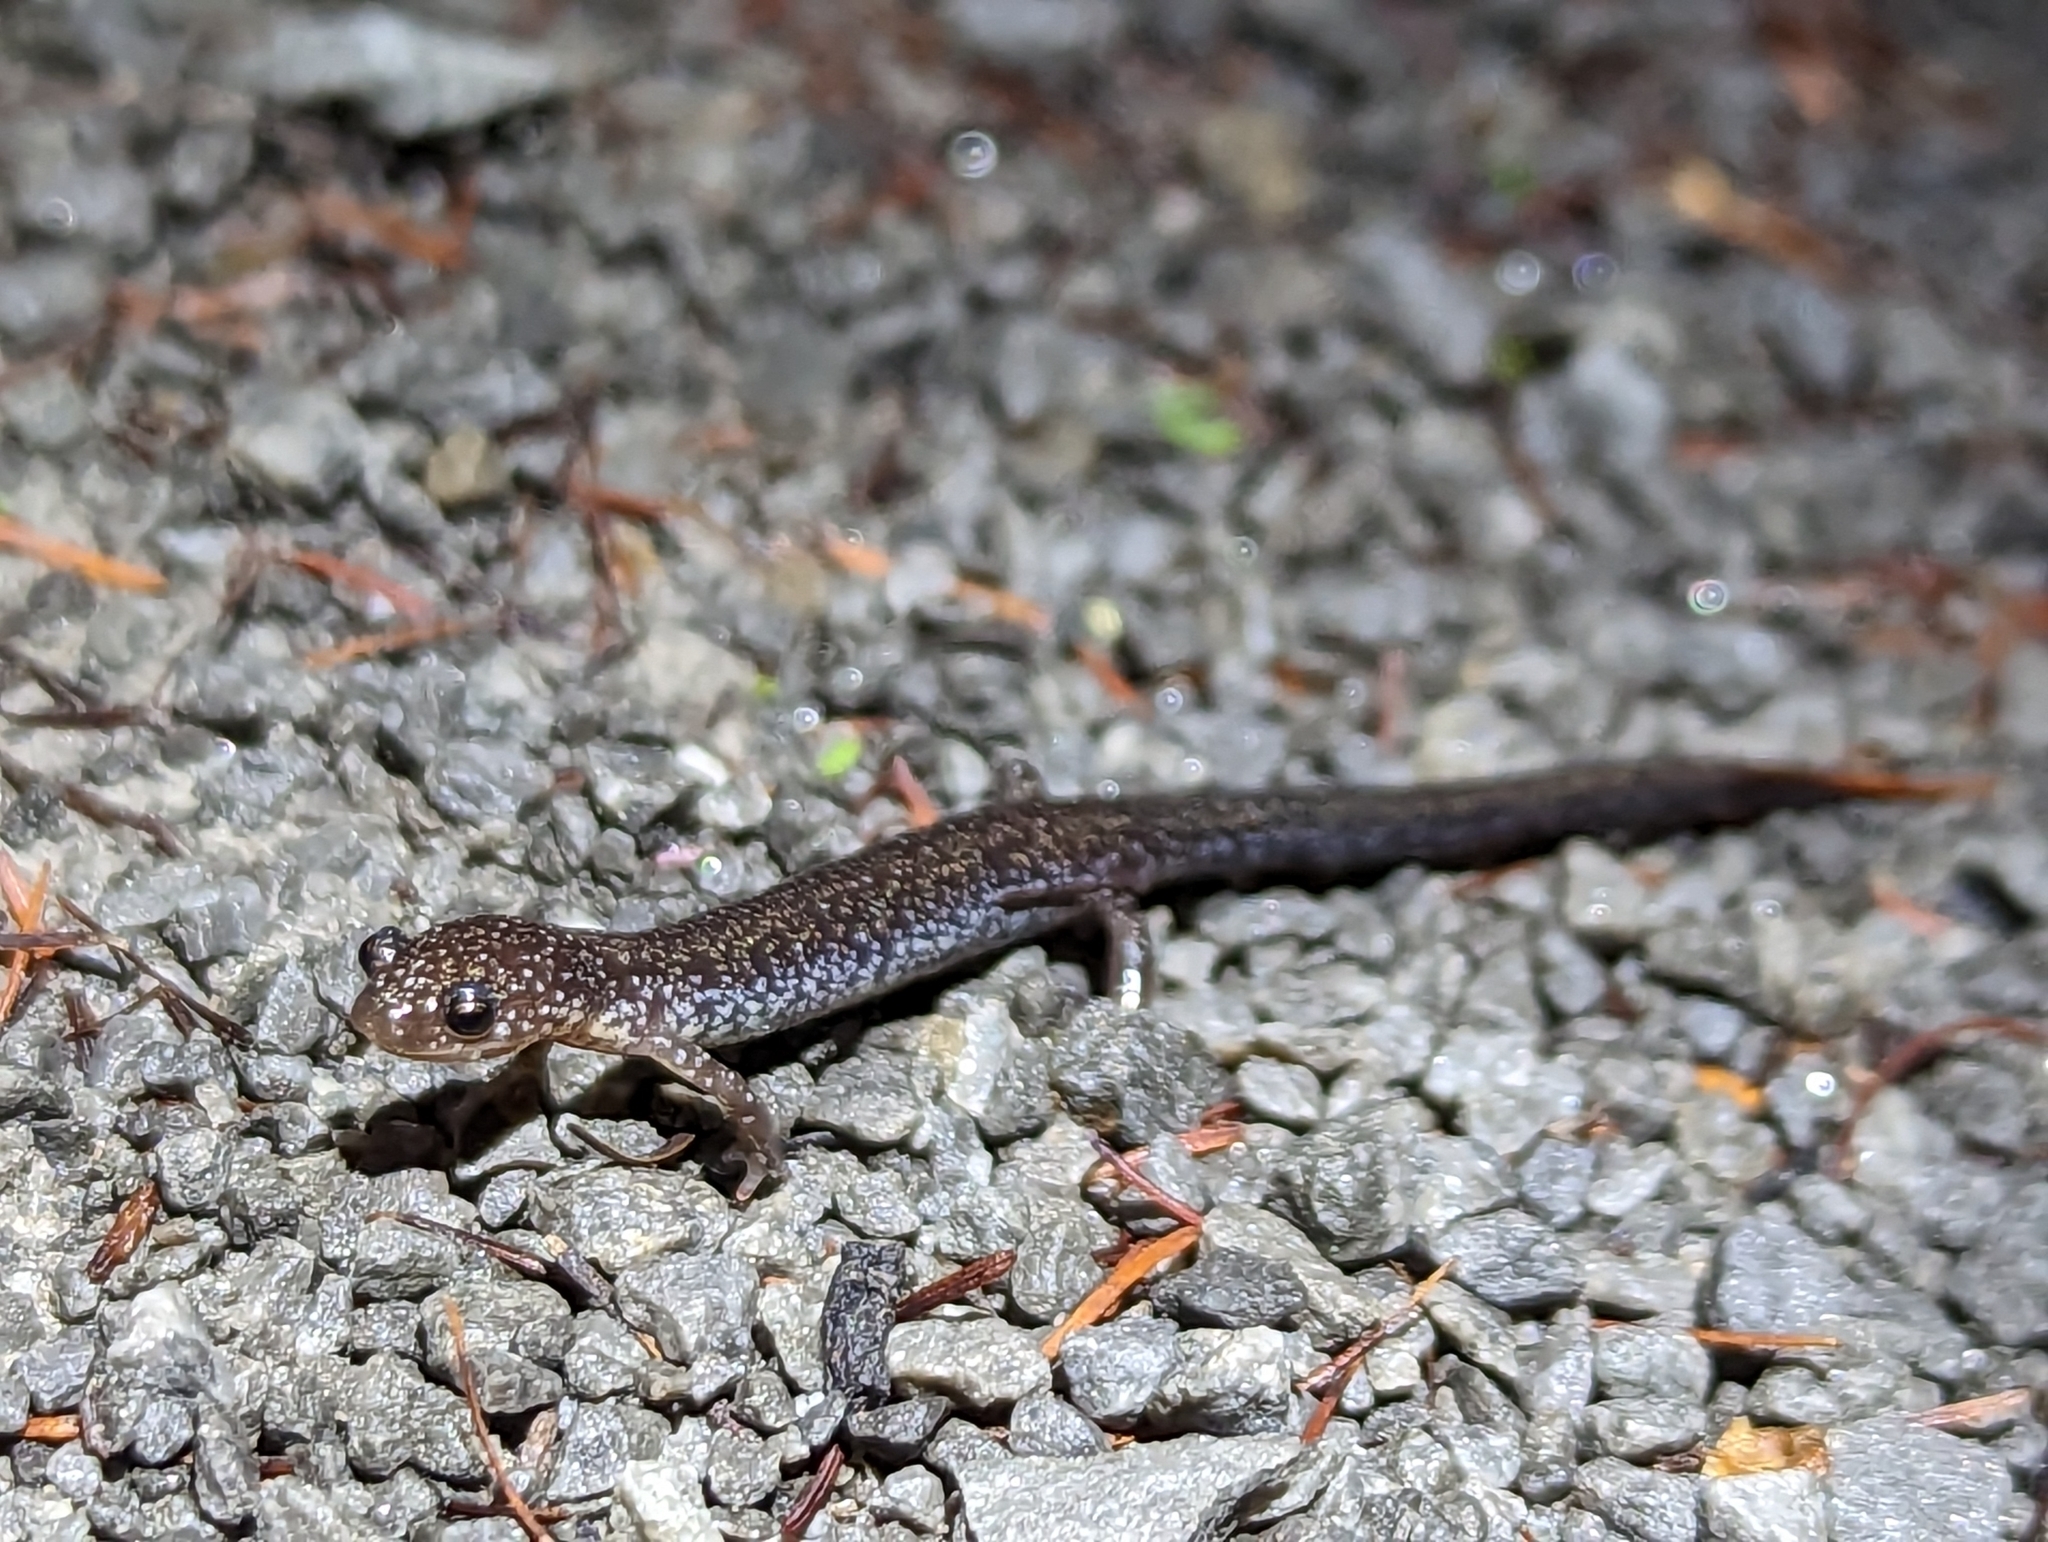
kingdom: Animalia
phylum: Chordata
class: Amphibia
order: Caudata
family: Plethodontidae
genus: Plethodon
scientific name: Plethodon cinereus
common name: Redback salamander
